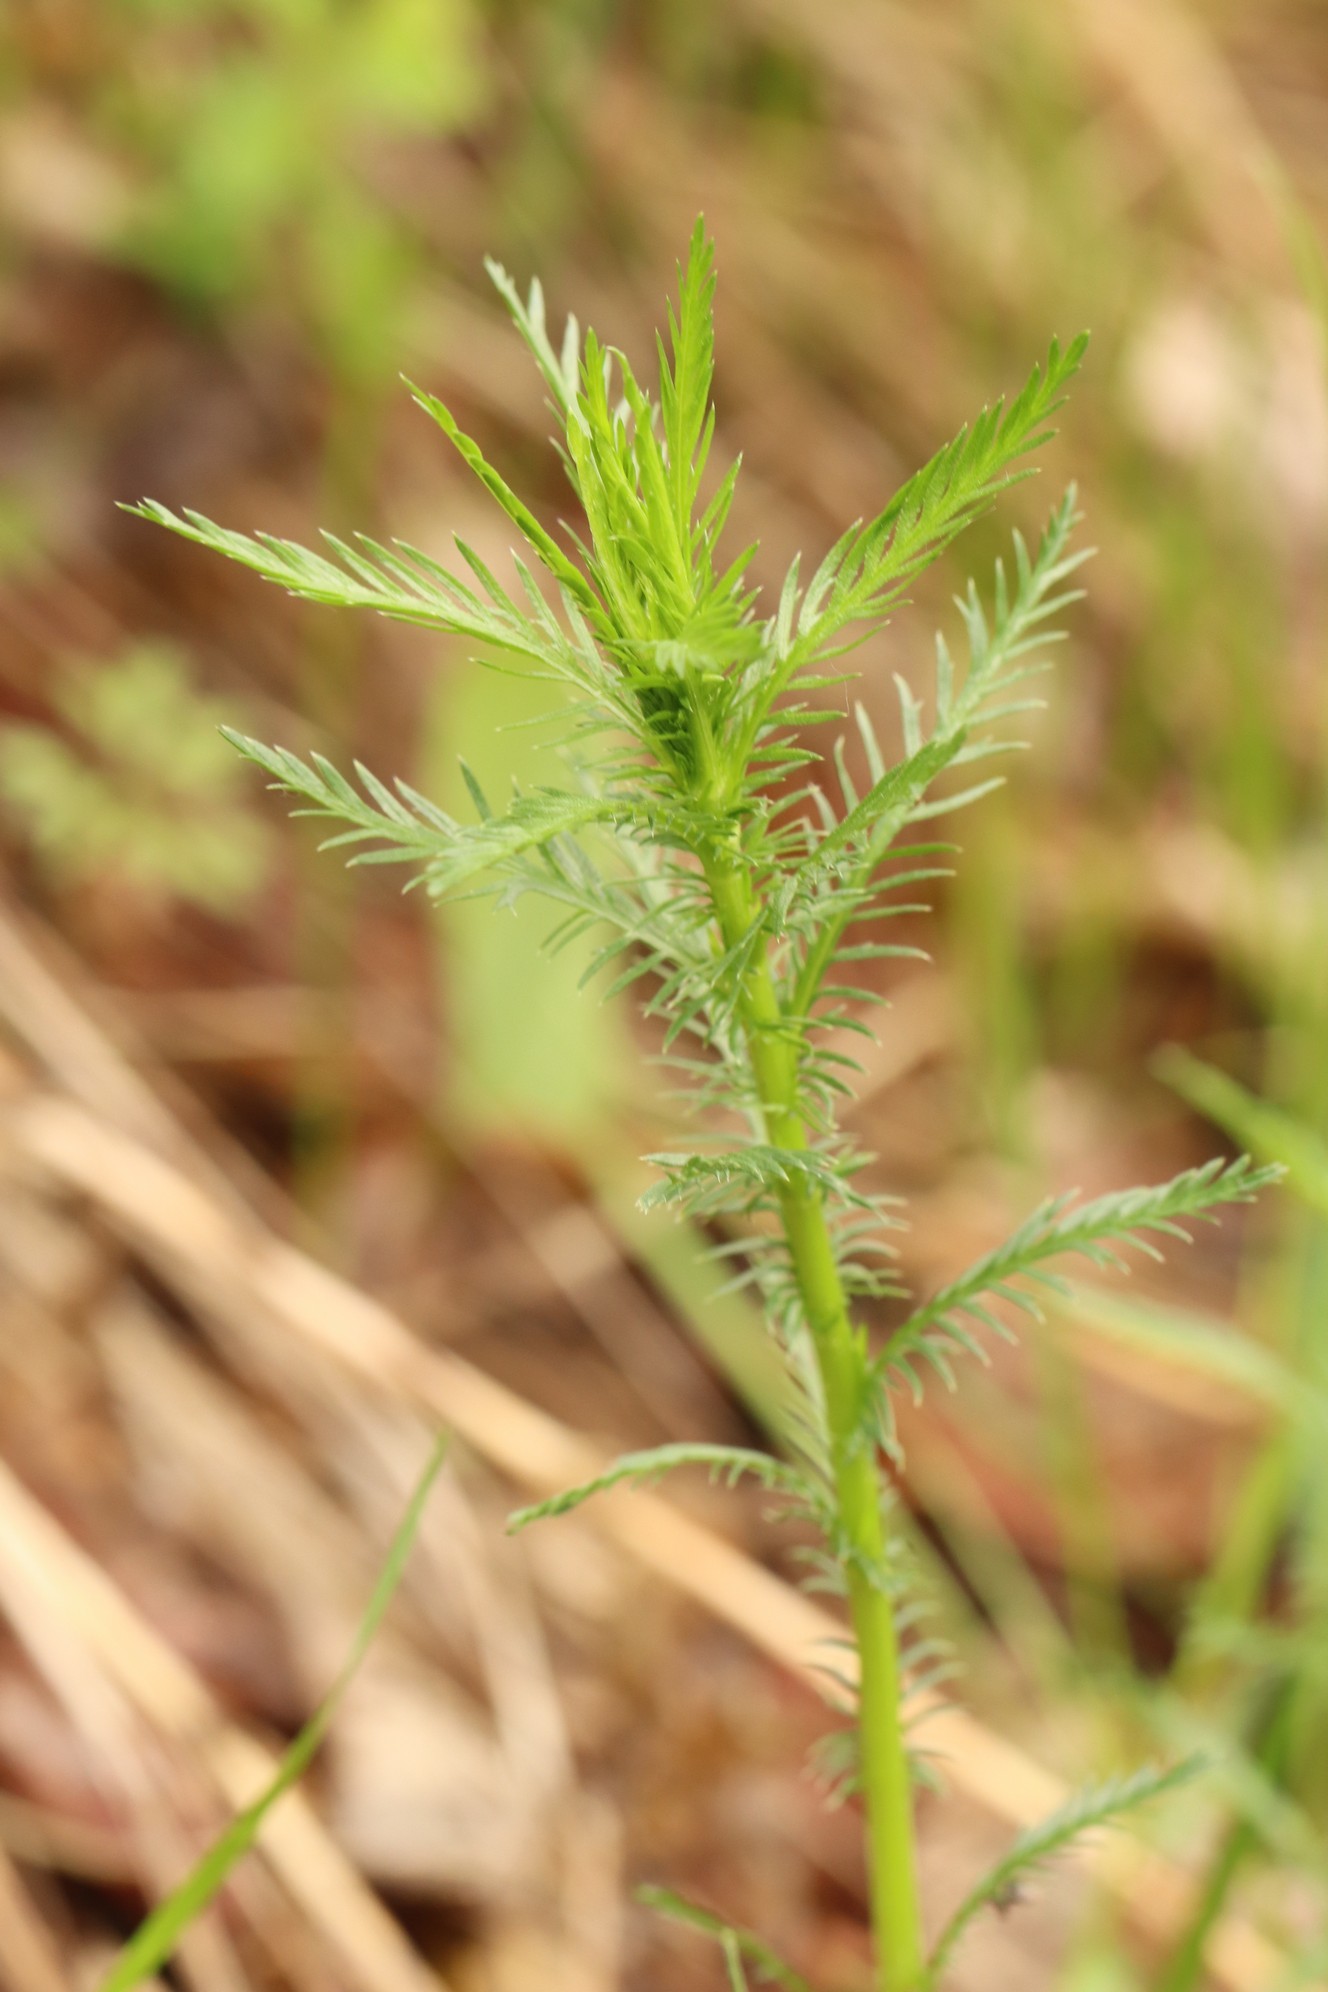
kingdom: Plantae
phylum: Tracheophyta
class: Magnoliopsida
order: Asterales
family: Asteraceae
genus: Achillea
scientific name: Achillea impatiens
